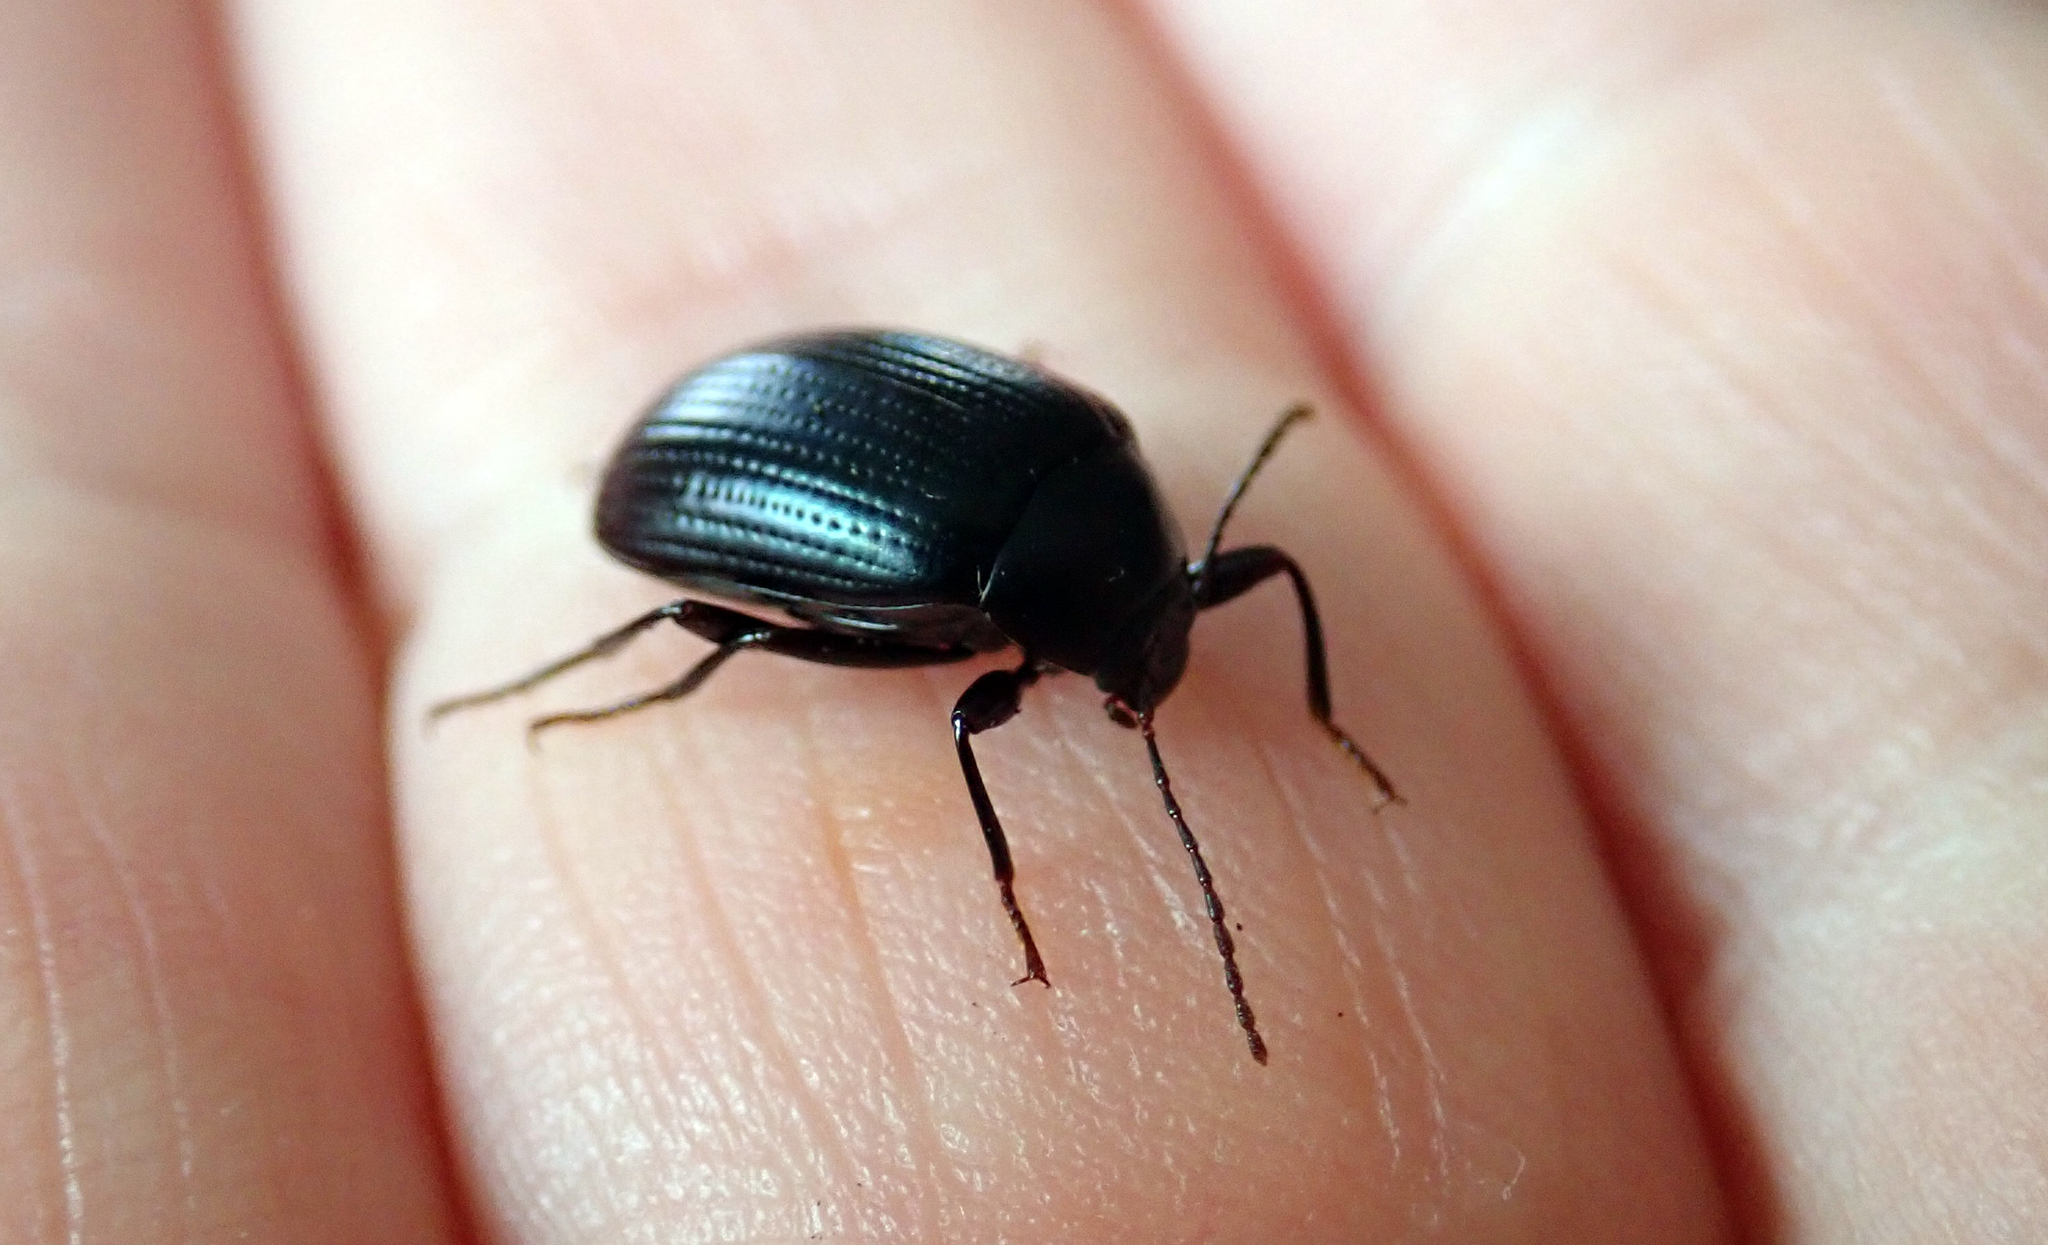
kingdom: Animalia
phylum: Arthropoda
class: Insecta
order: Coleoptera
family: Tenebrionidae
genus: Amarygmus
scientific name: Amarygmus
